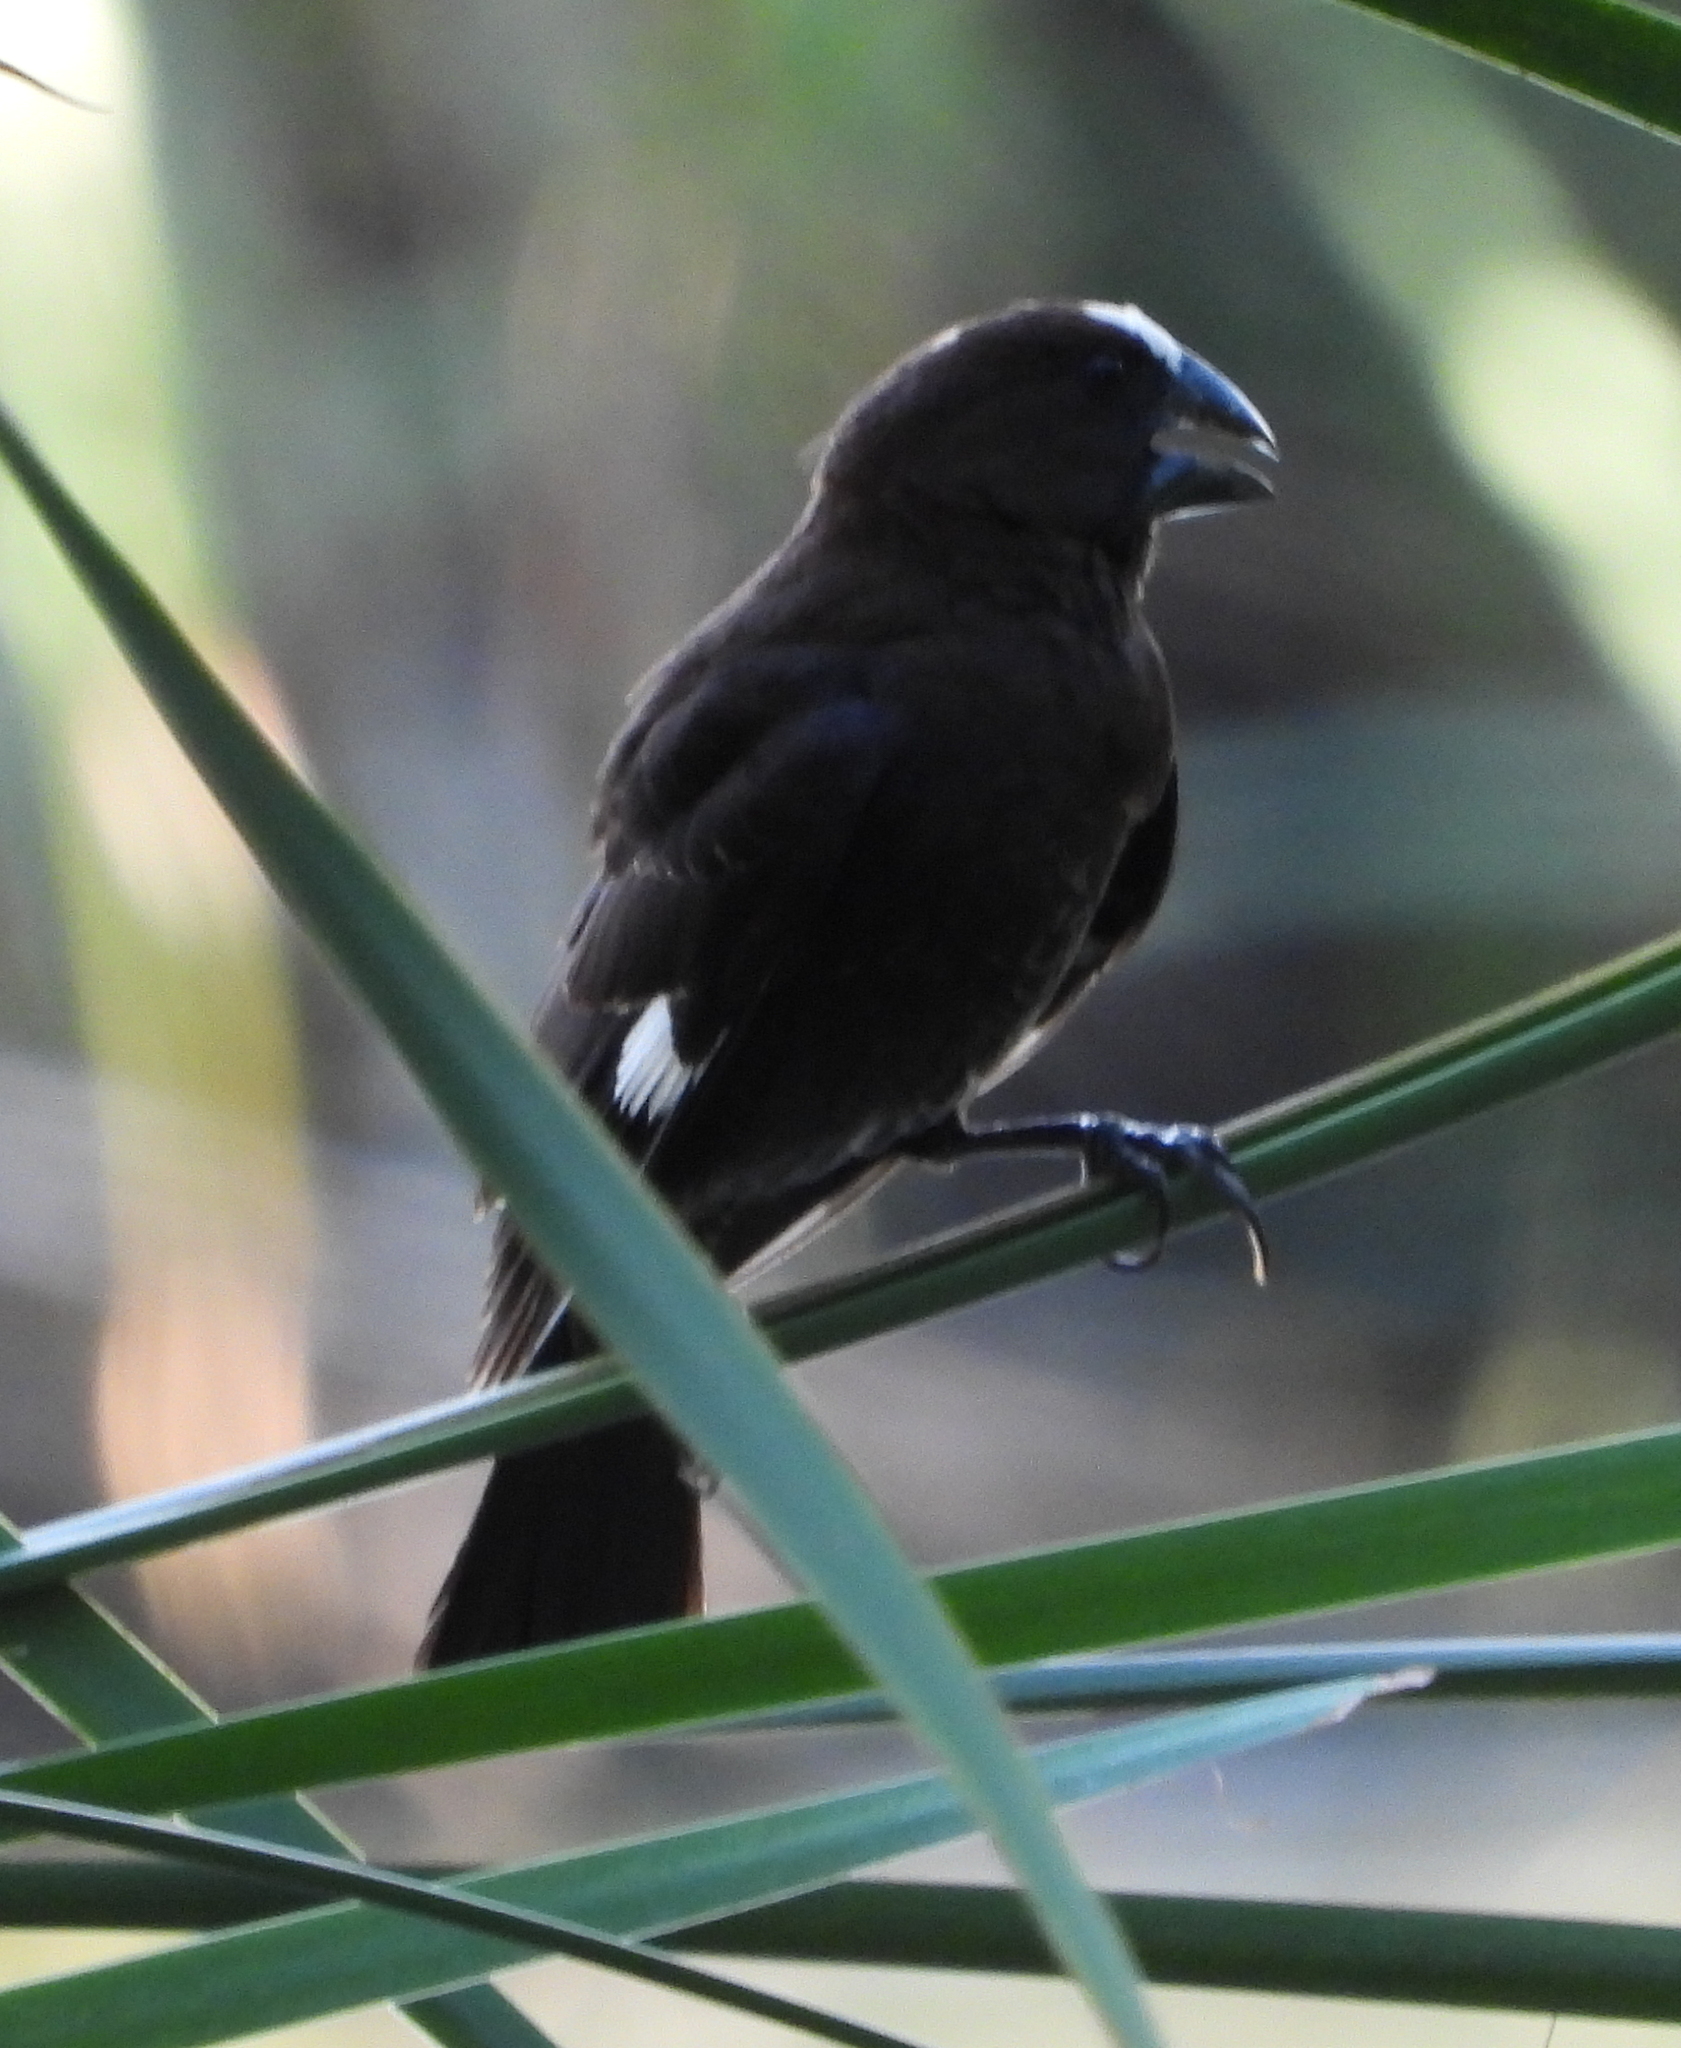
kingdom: Animalia
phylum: Chordata
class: Aves
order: Passeriformes
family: Ploceidae
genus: Amblyospiza
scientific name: Amblyospiza albifrons
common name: Thick-billed weaver
